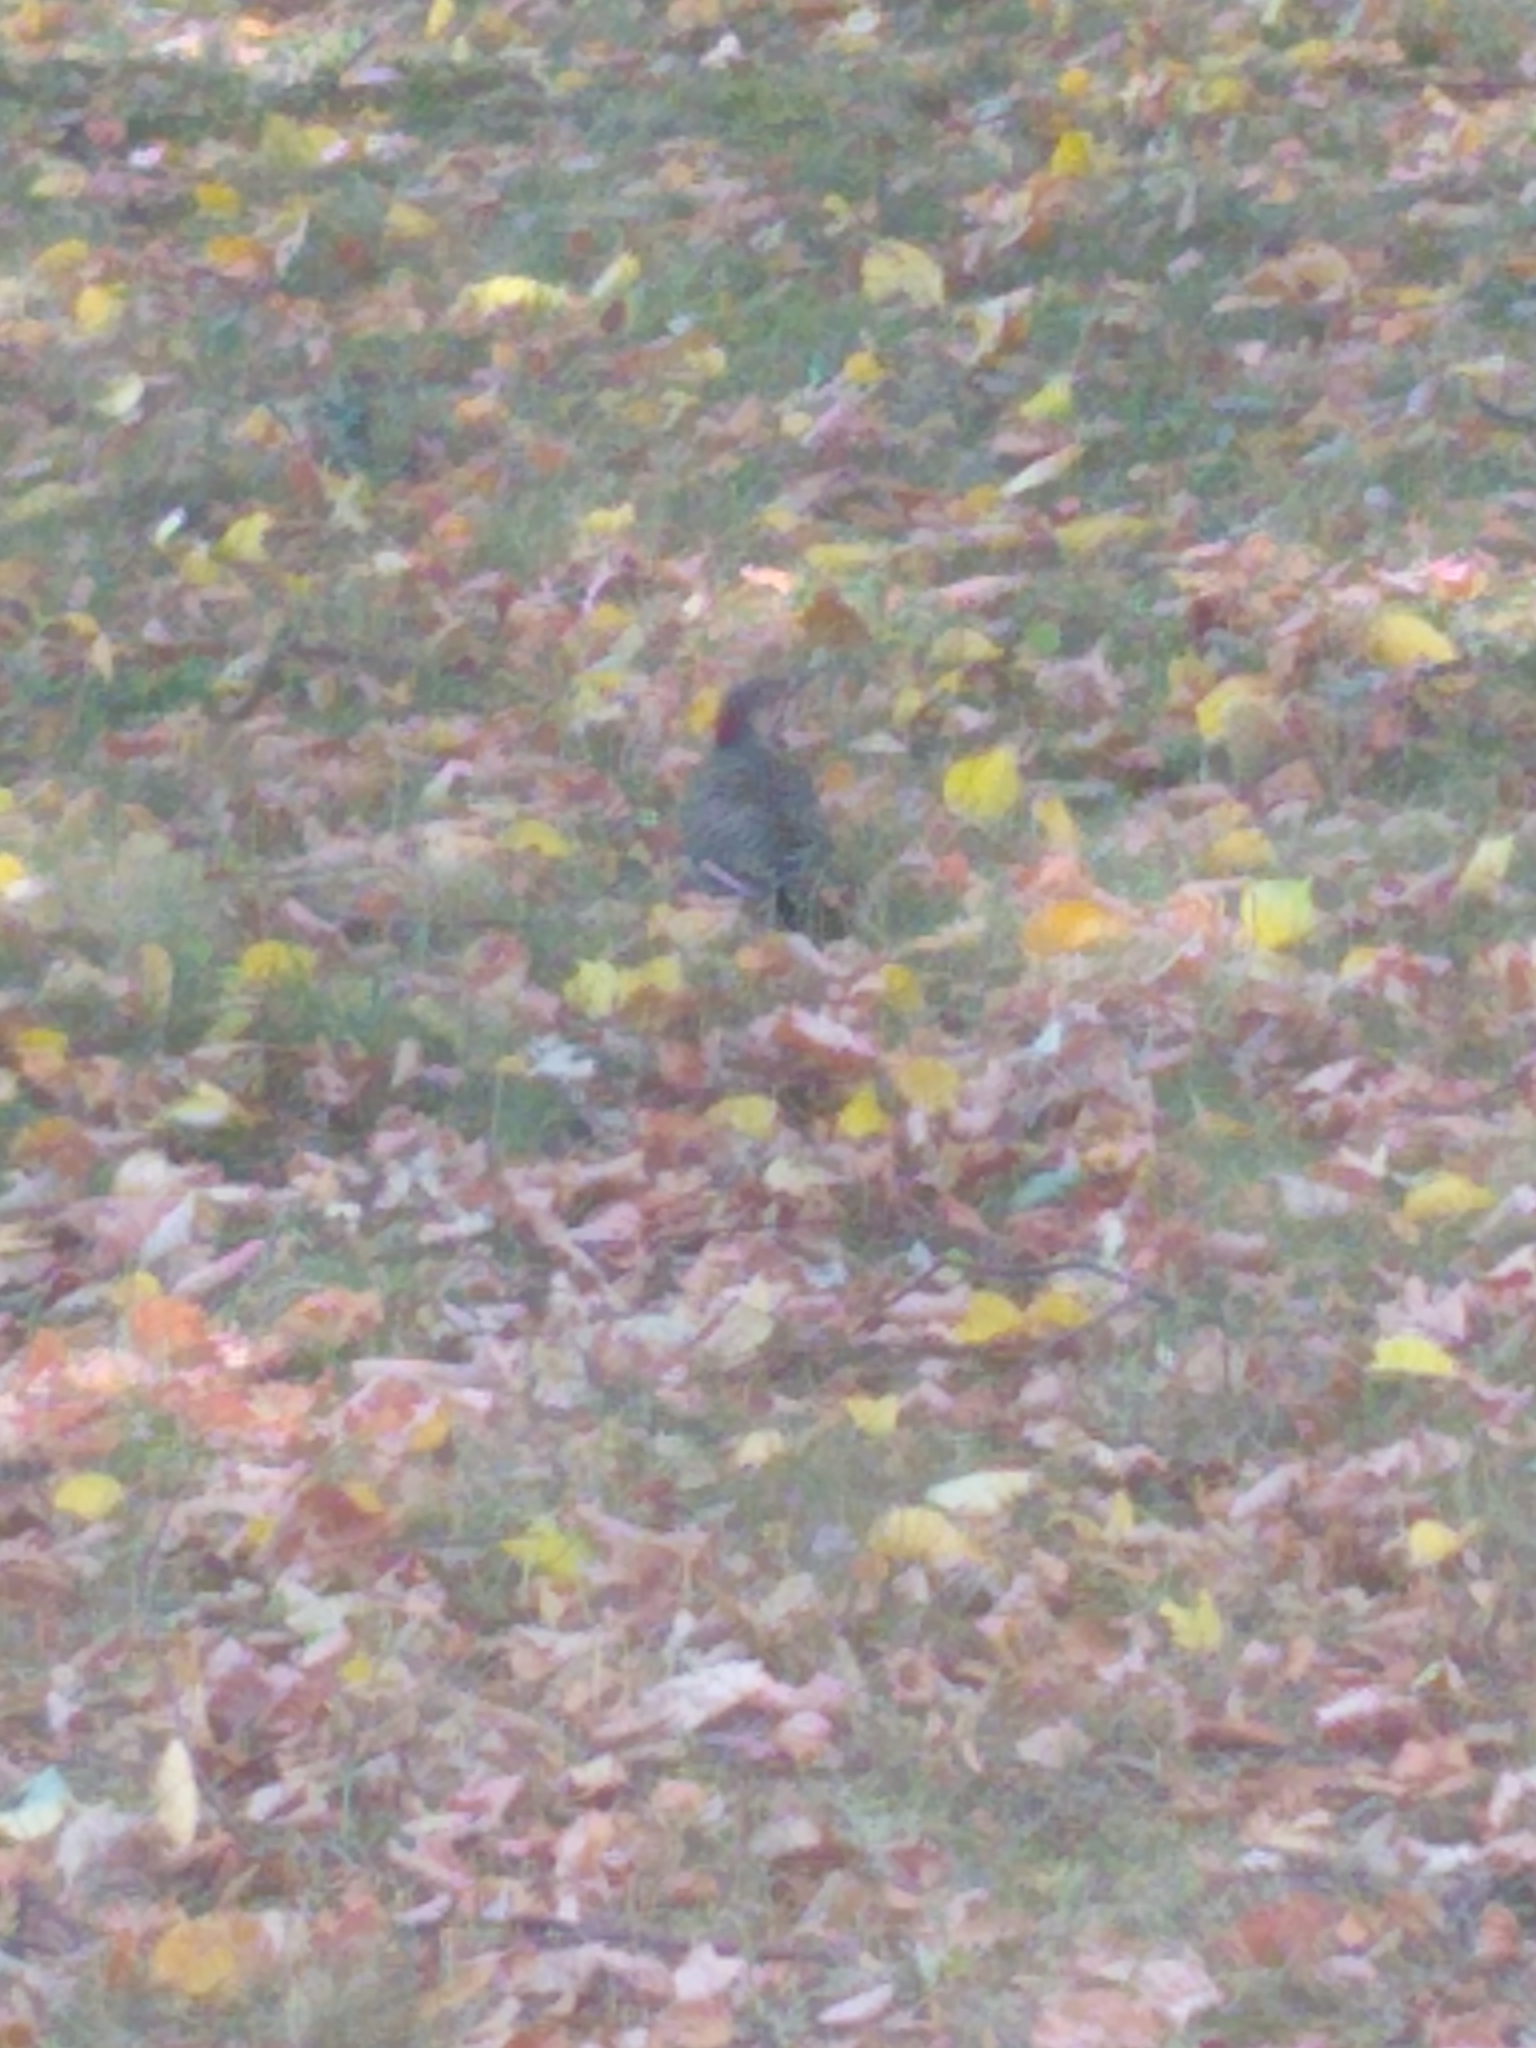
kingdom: Animalia
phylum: Chordata
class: Aves
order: Piciformes
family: Picidae
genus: Colaptes
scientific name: Colaptes auratus
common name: Northern flicker
